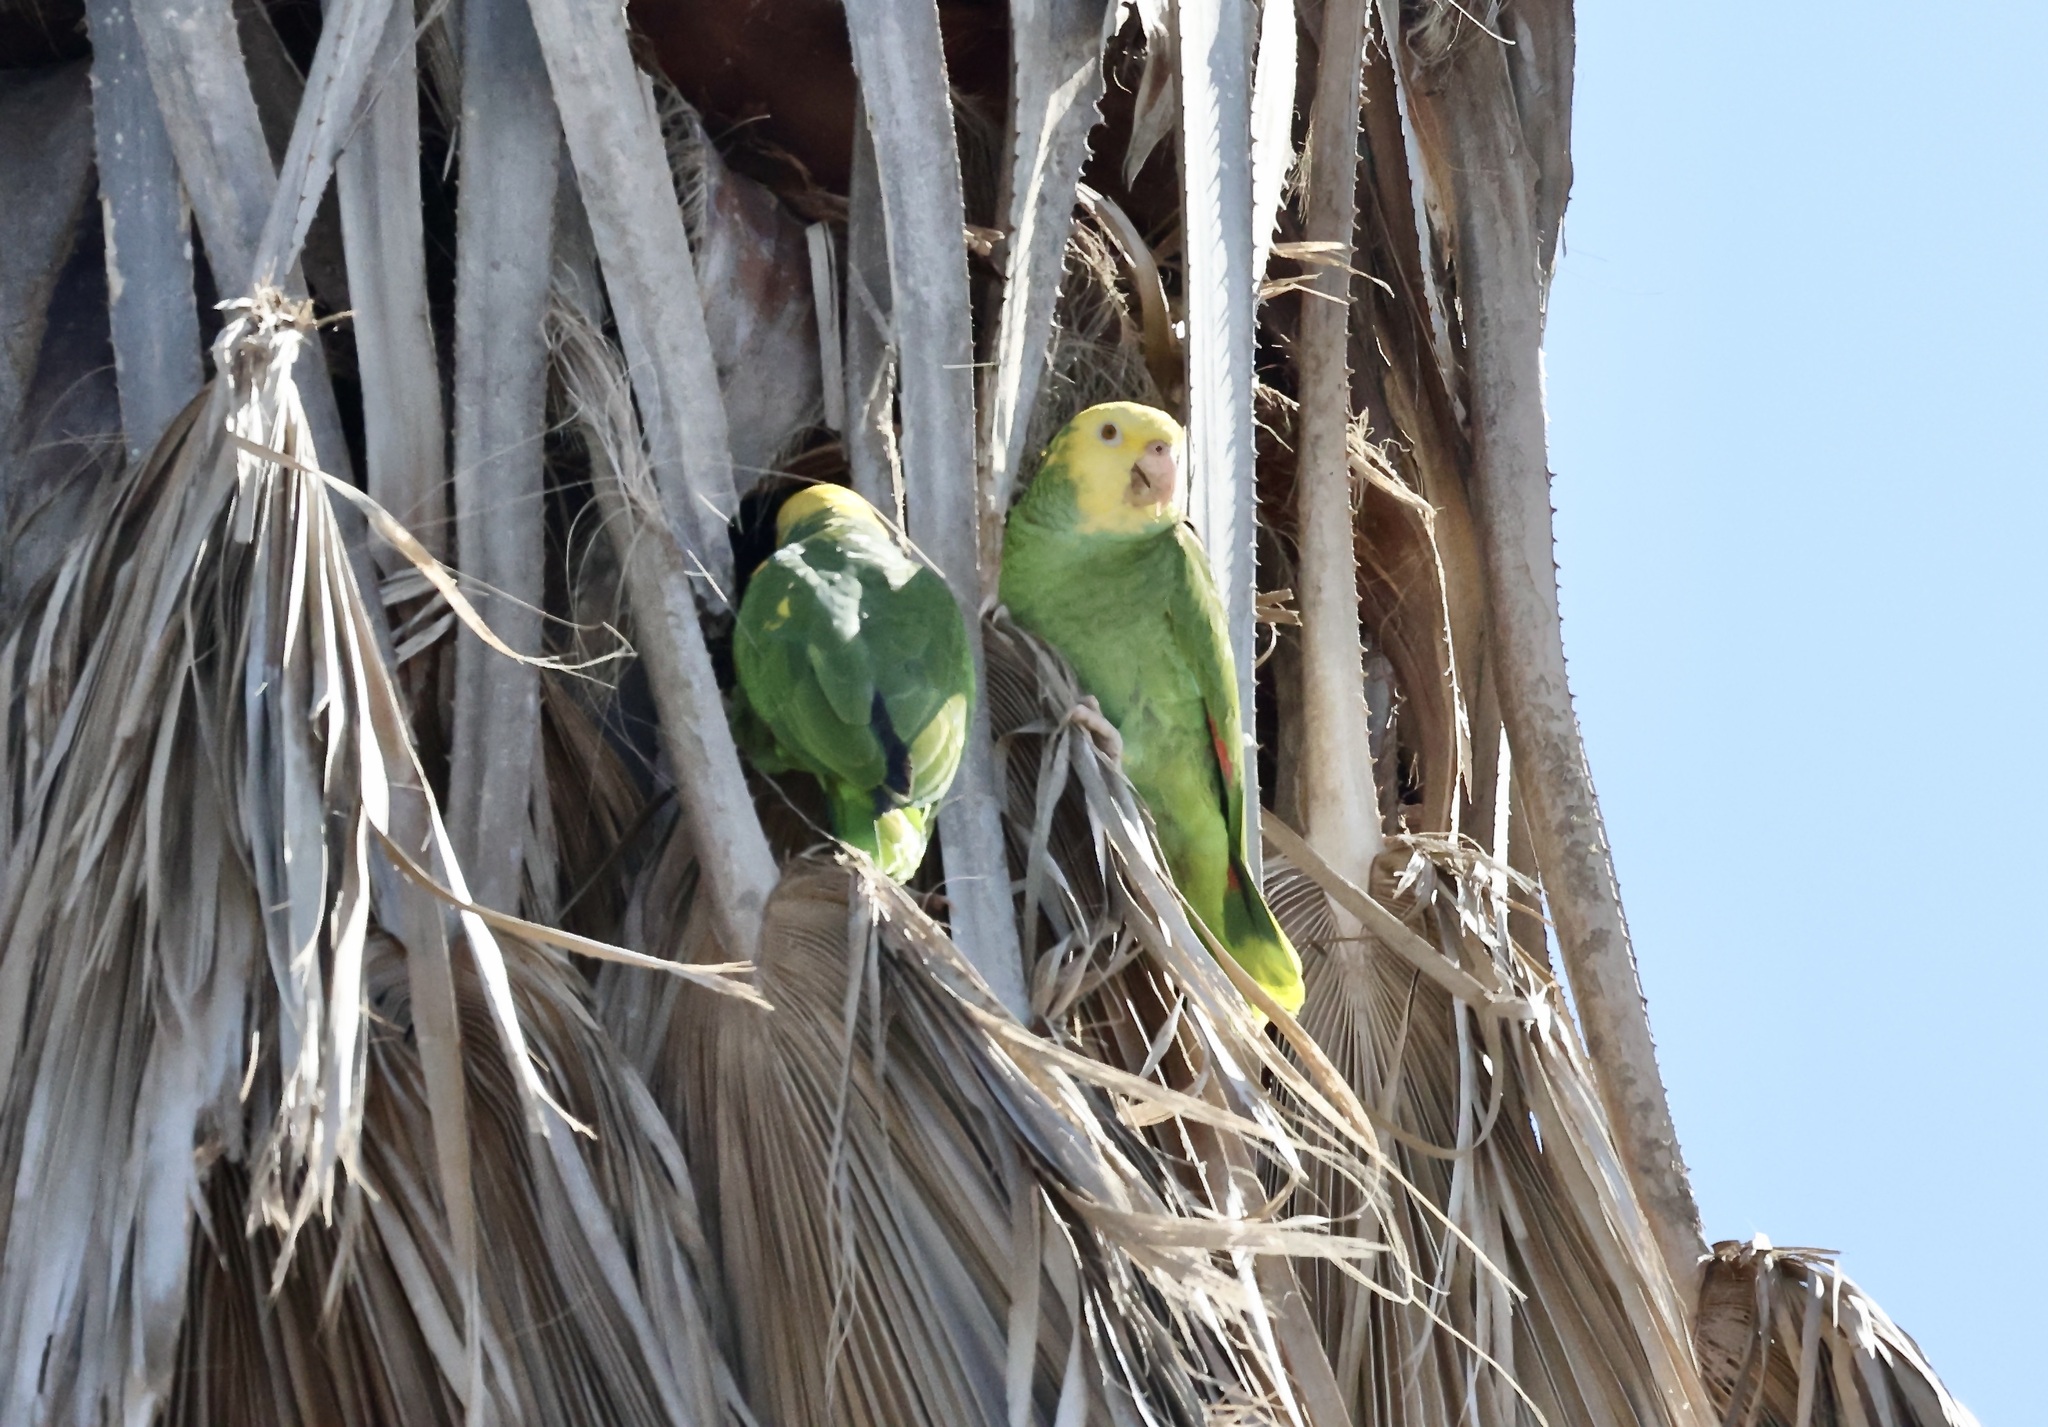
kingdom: Animalia
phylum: Chordata
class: Aves
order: Psittaciformes
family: Psittacidae
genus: Amazona
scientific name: Amazona oratrix
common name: Yellow-headed amazon
